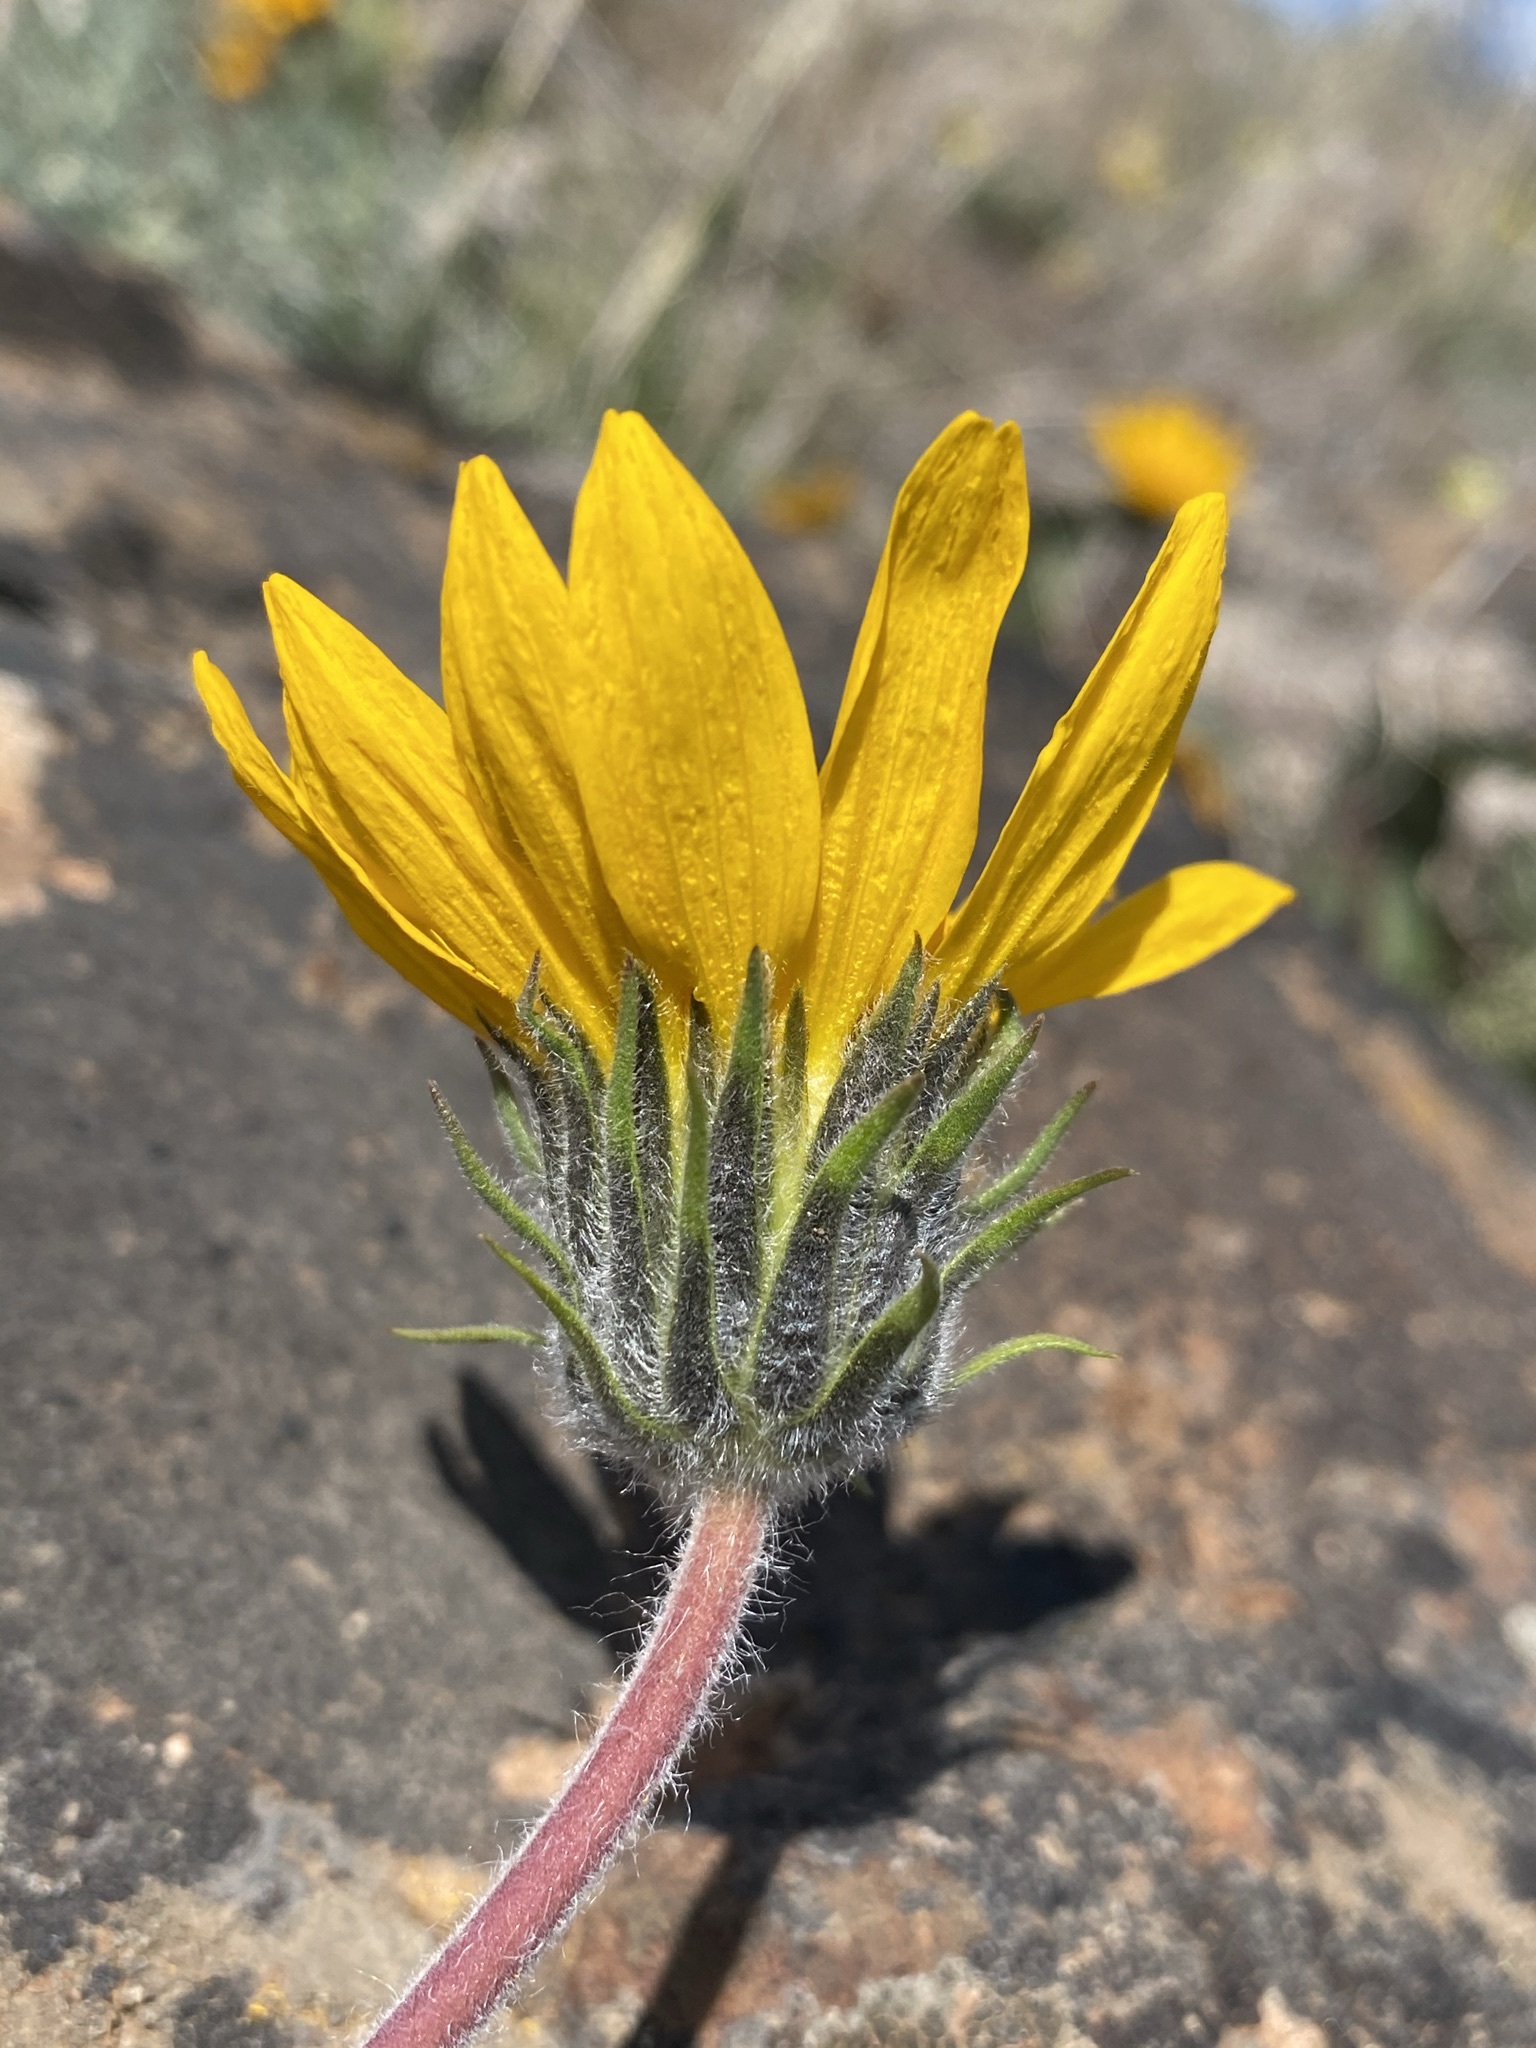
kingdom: Plantae
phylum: Tracheophyta
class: Magnoliopsida
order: Asterales
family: Asteraceae
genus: Balsamorhiza
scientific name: Balsamorhiza serrata
